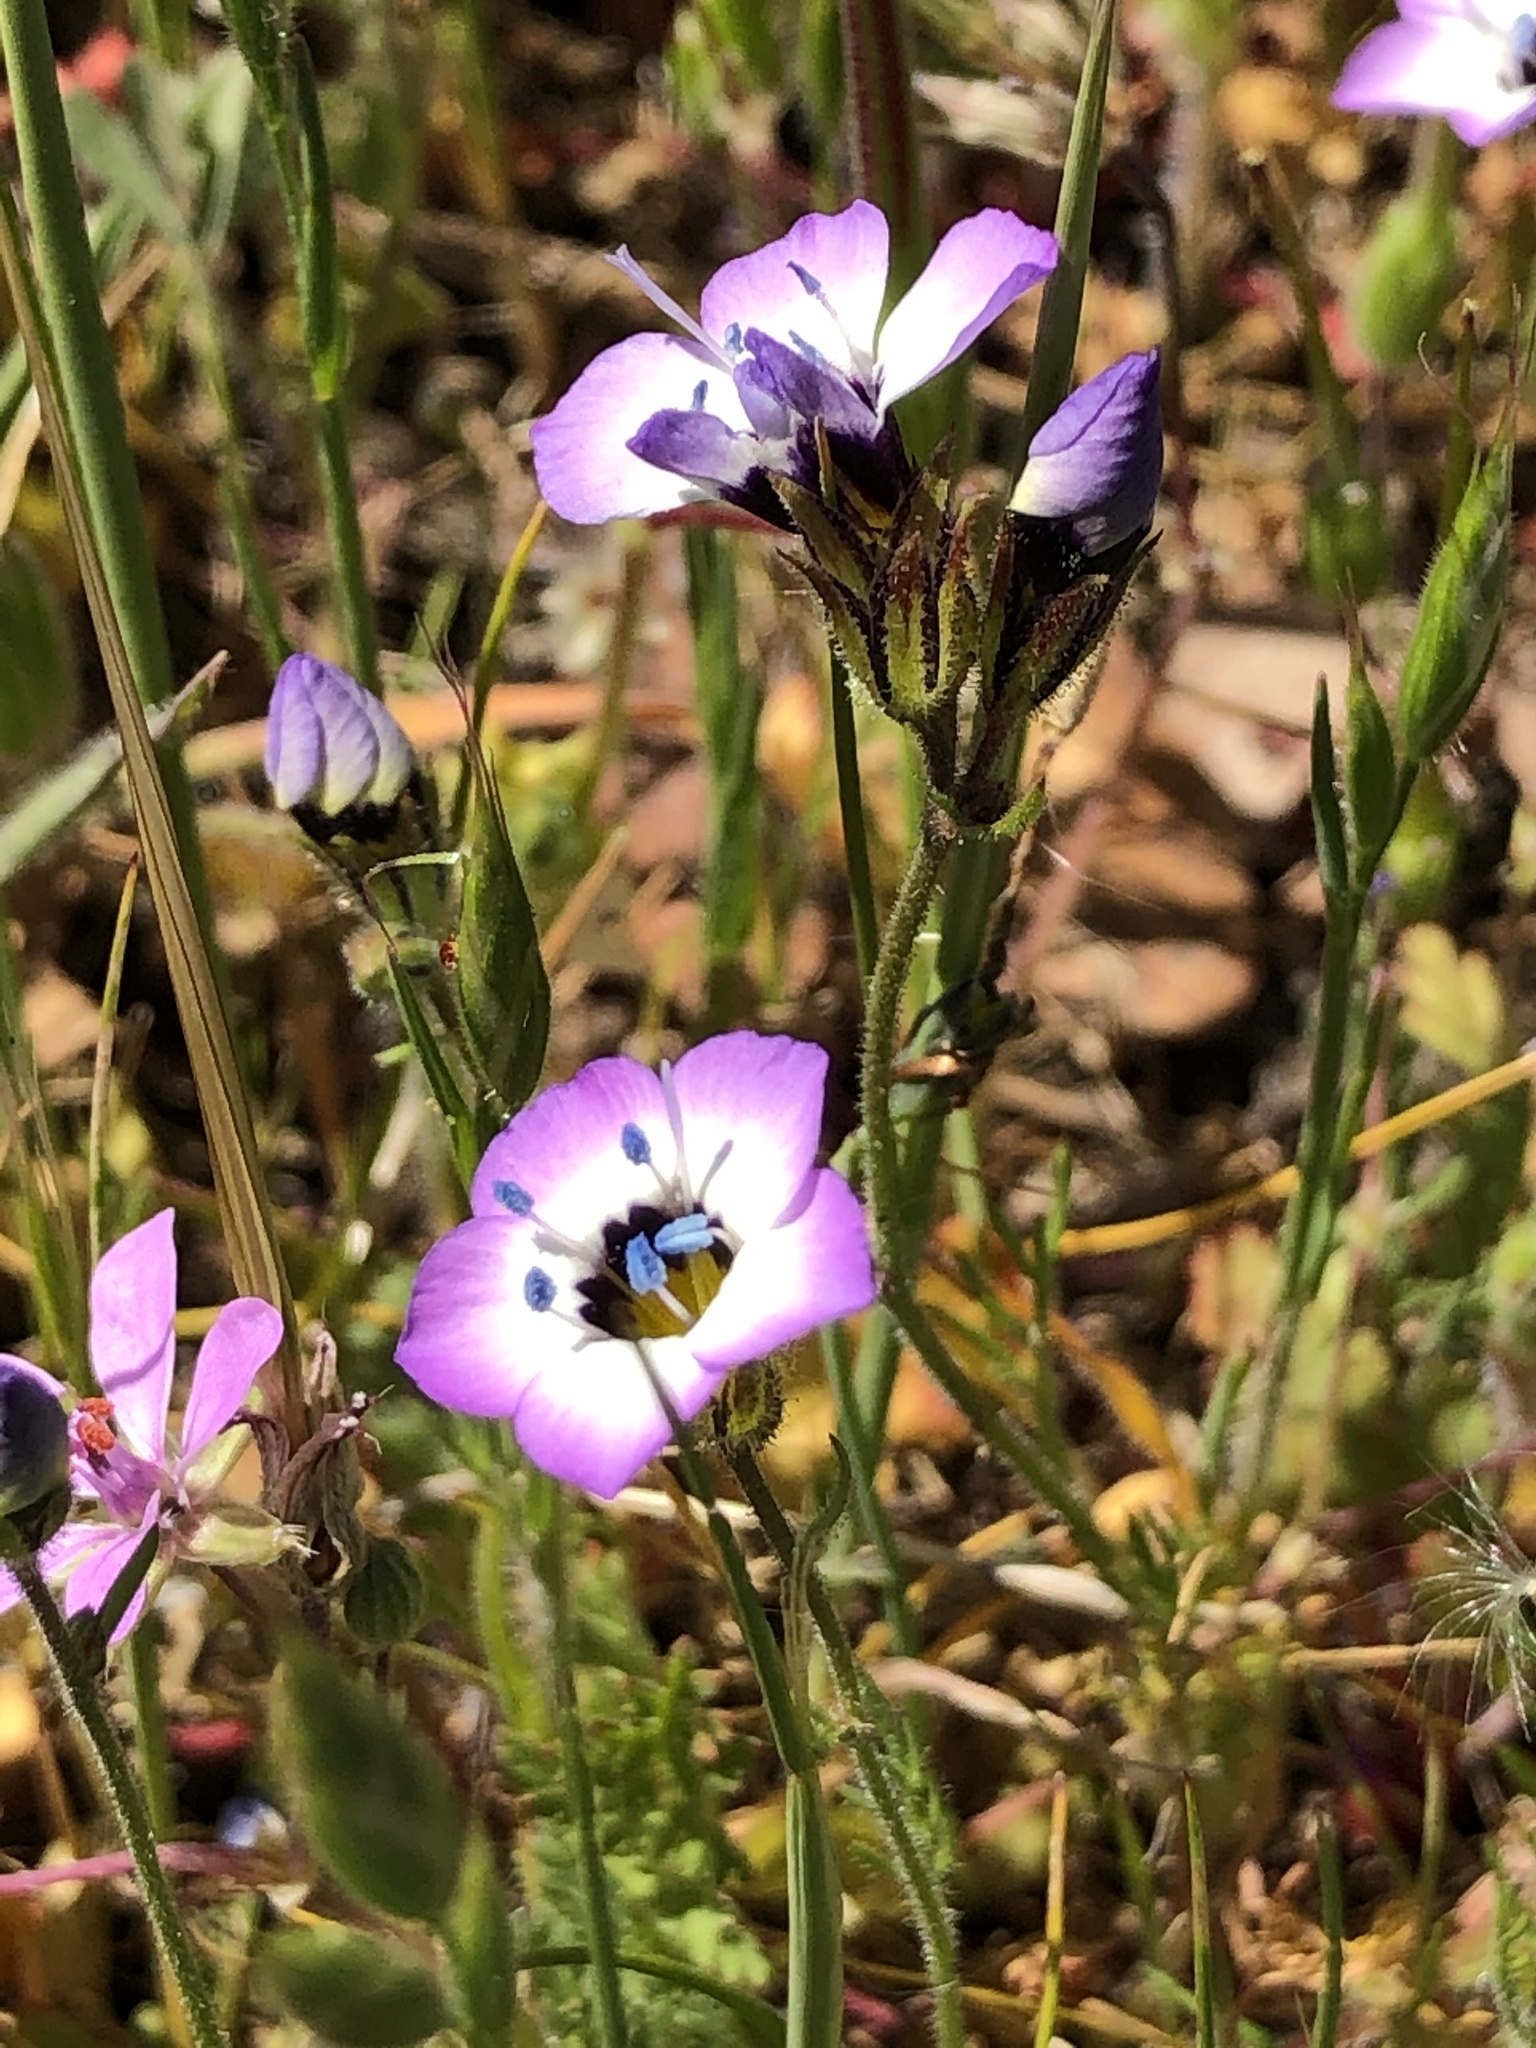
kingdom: Plantae
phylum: Tracheophyta
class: Magnoliopsida
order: Ericales
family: Polemoniaceae
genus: Gilia
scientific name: Gilia tricolor
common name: Bird's-eyes
